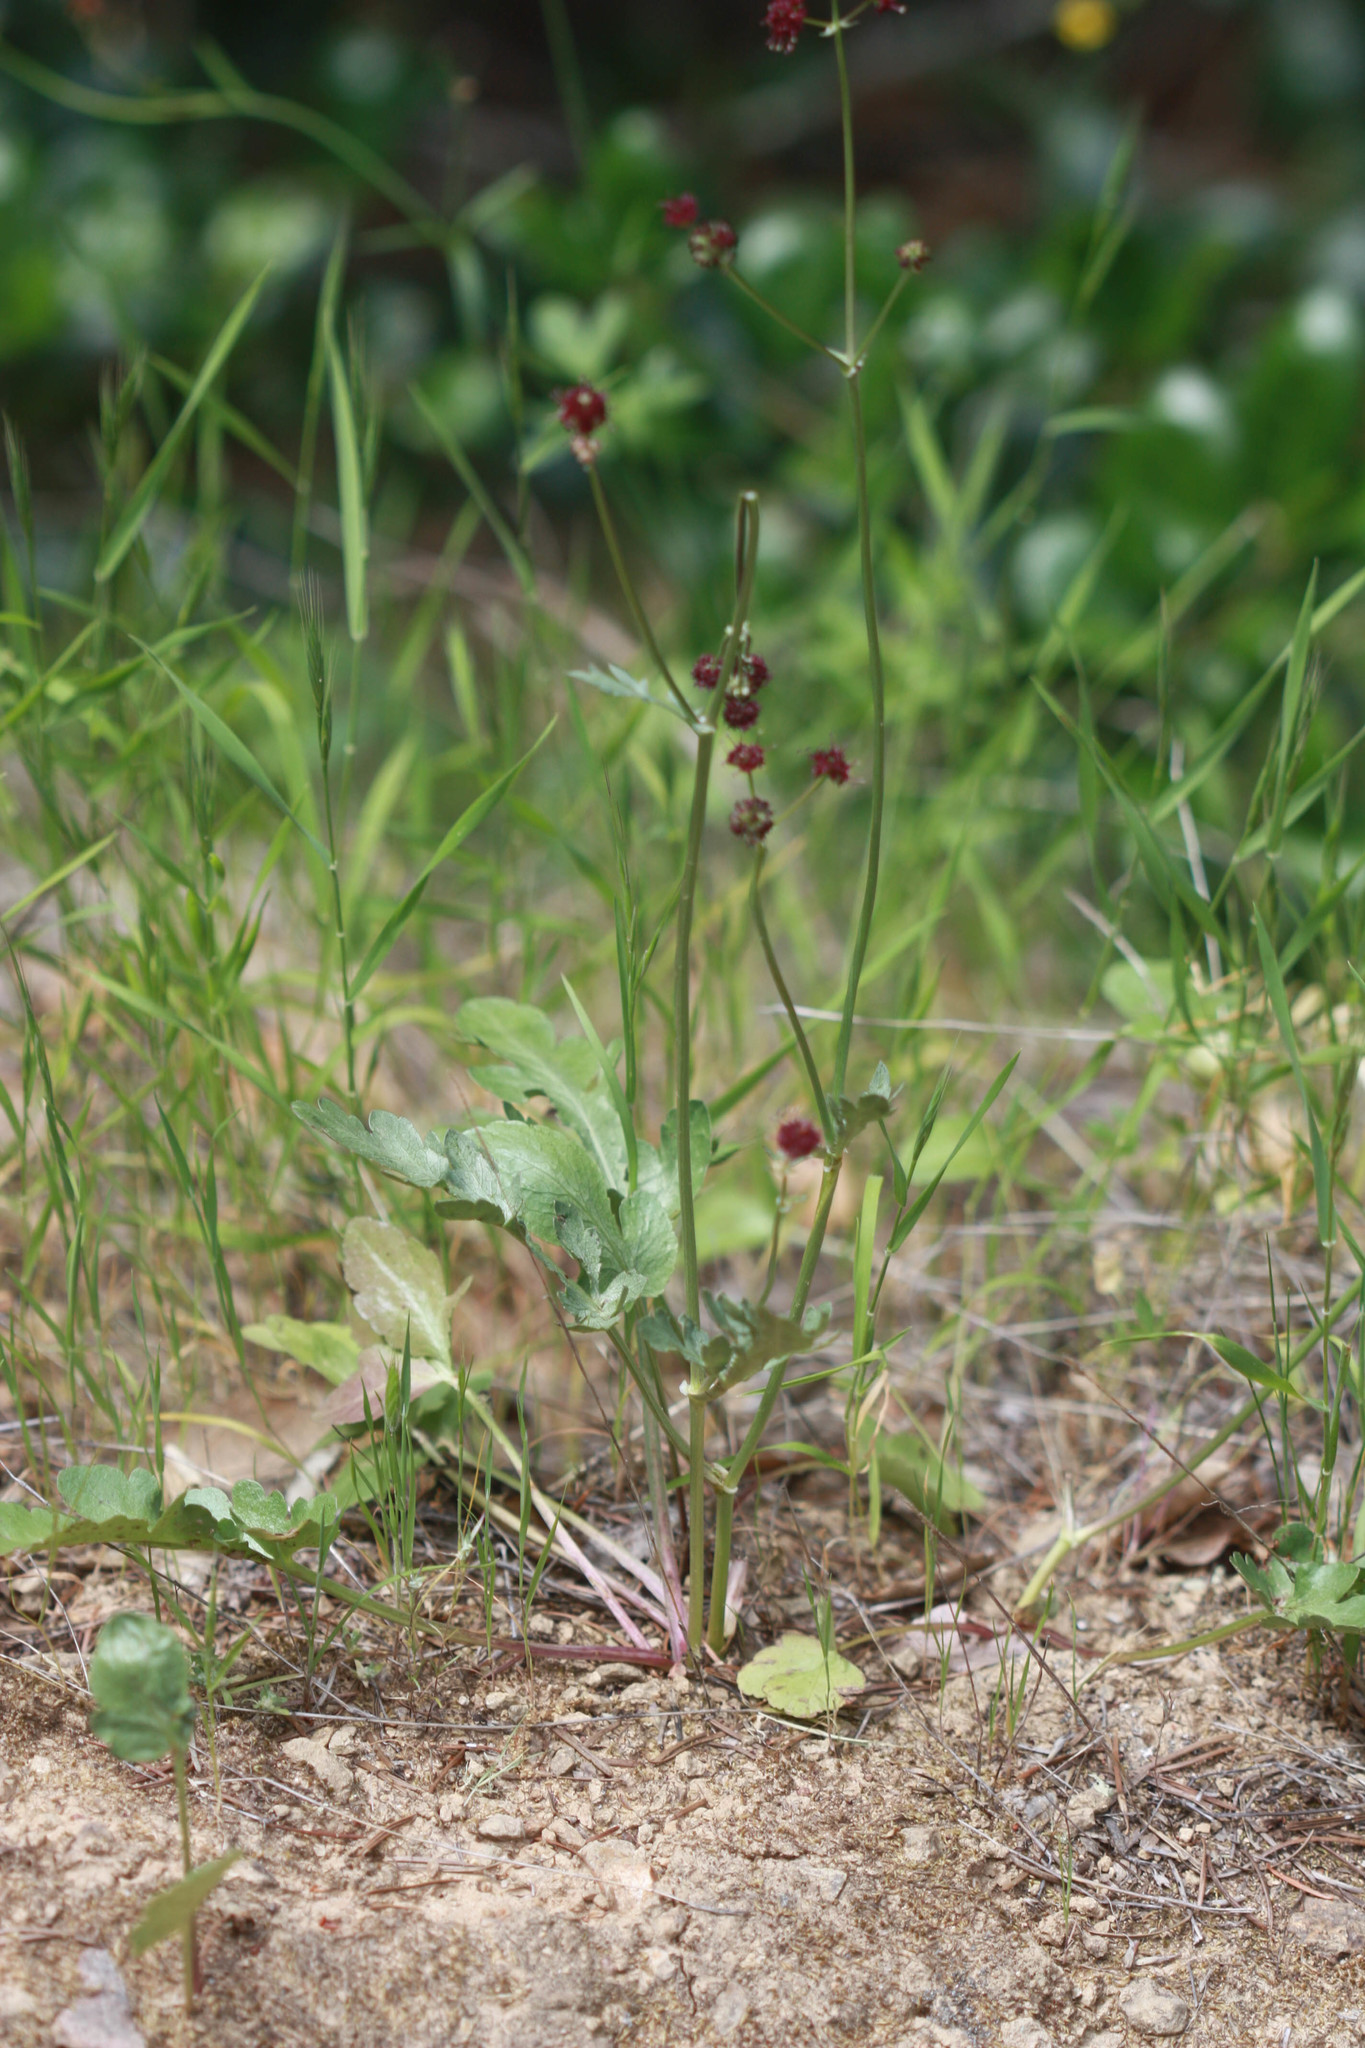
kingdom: Plantae
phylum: Tracheophyta
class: Magnoliopsida
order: Apiales
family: Apiaceae
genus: Sanicula
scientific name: Sanicula bipinnatifida
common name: Shoe-buttons
